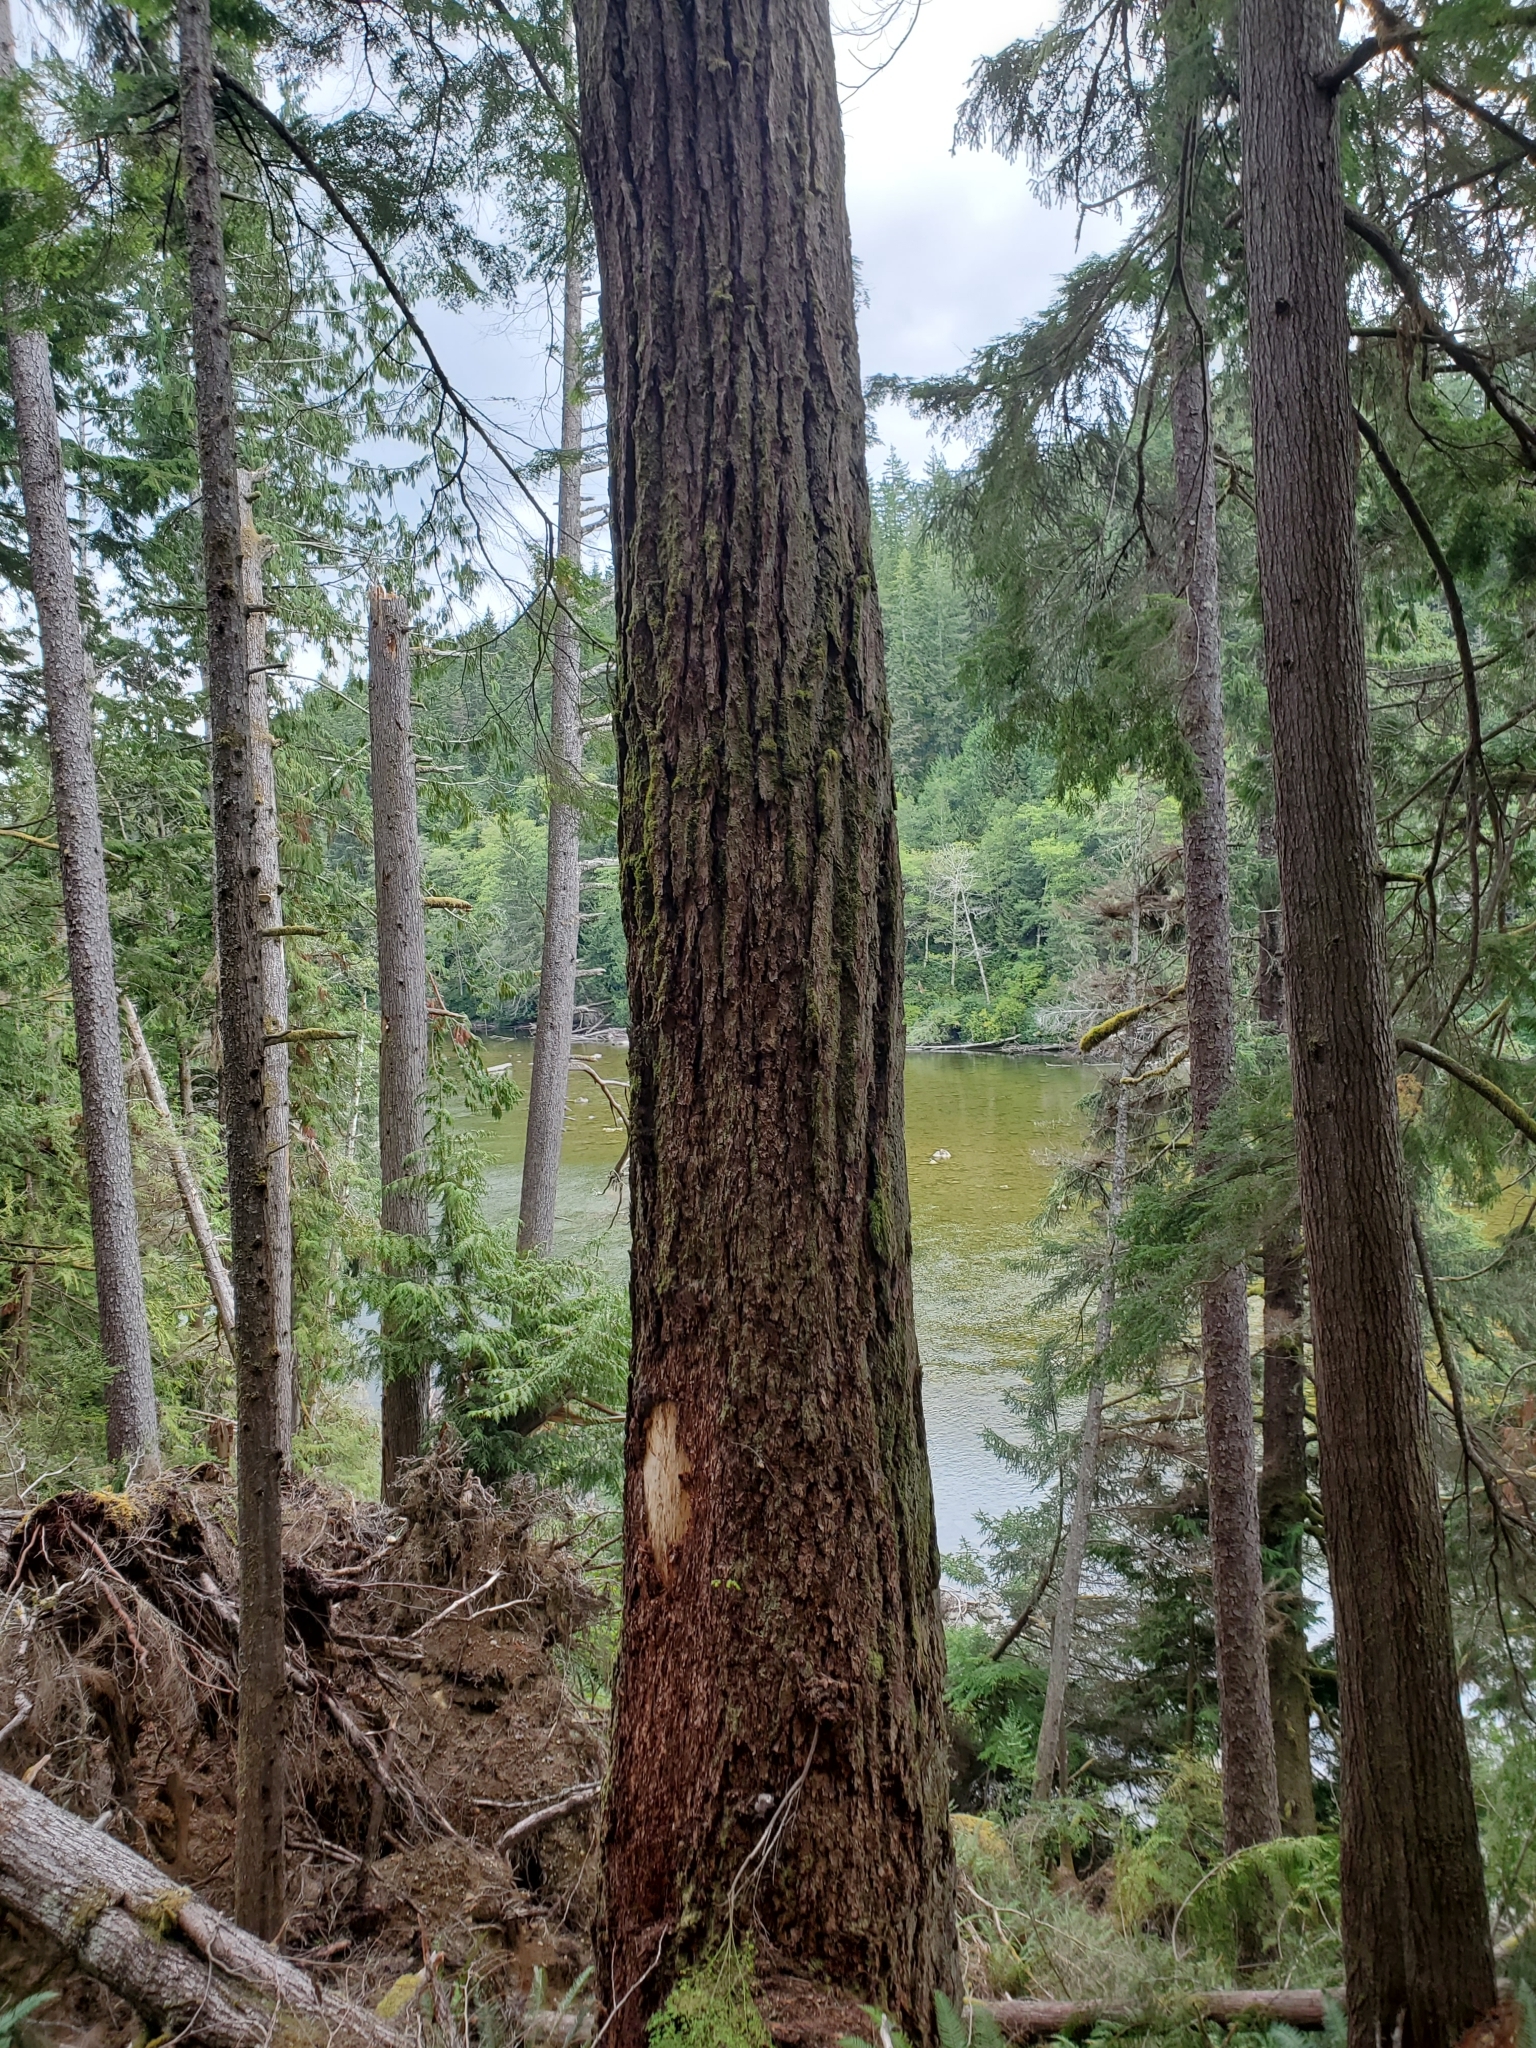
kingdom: Plantae
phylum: Tracheophyta
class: Pinopsida
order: Pinales
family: Pinaceae
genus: Pseudotsuga
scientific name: Pseudotsuga menziesii
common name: Douglas fir
